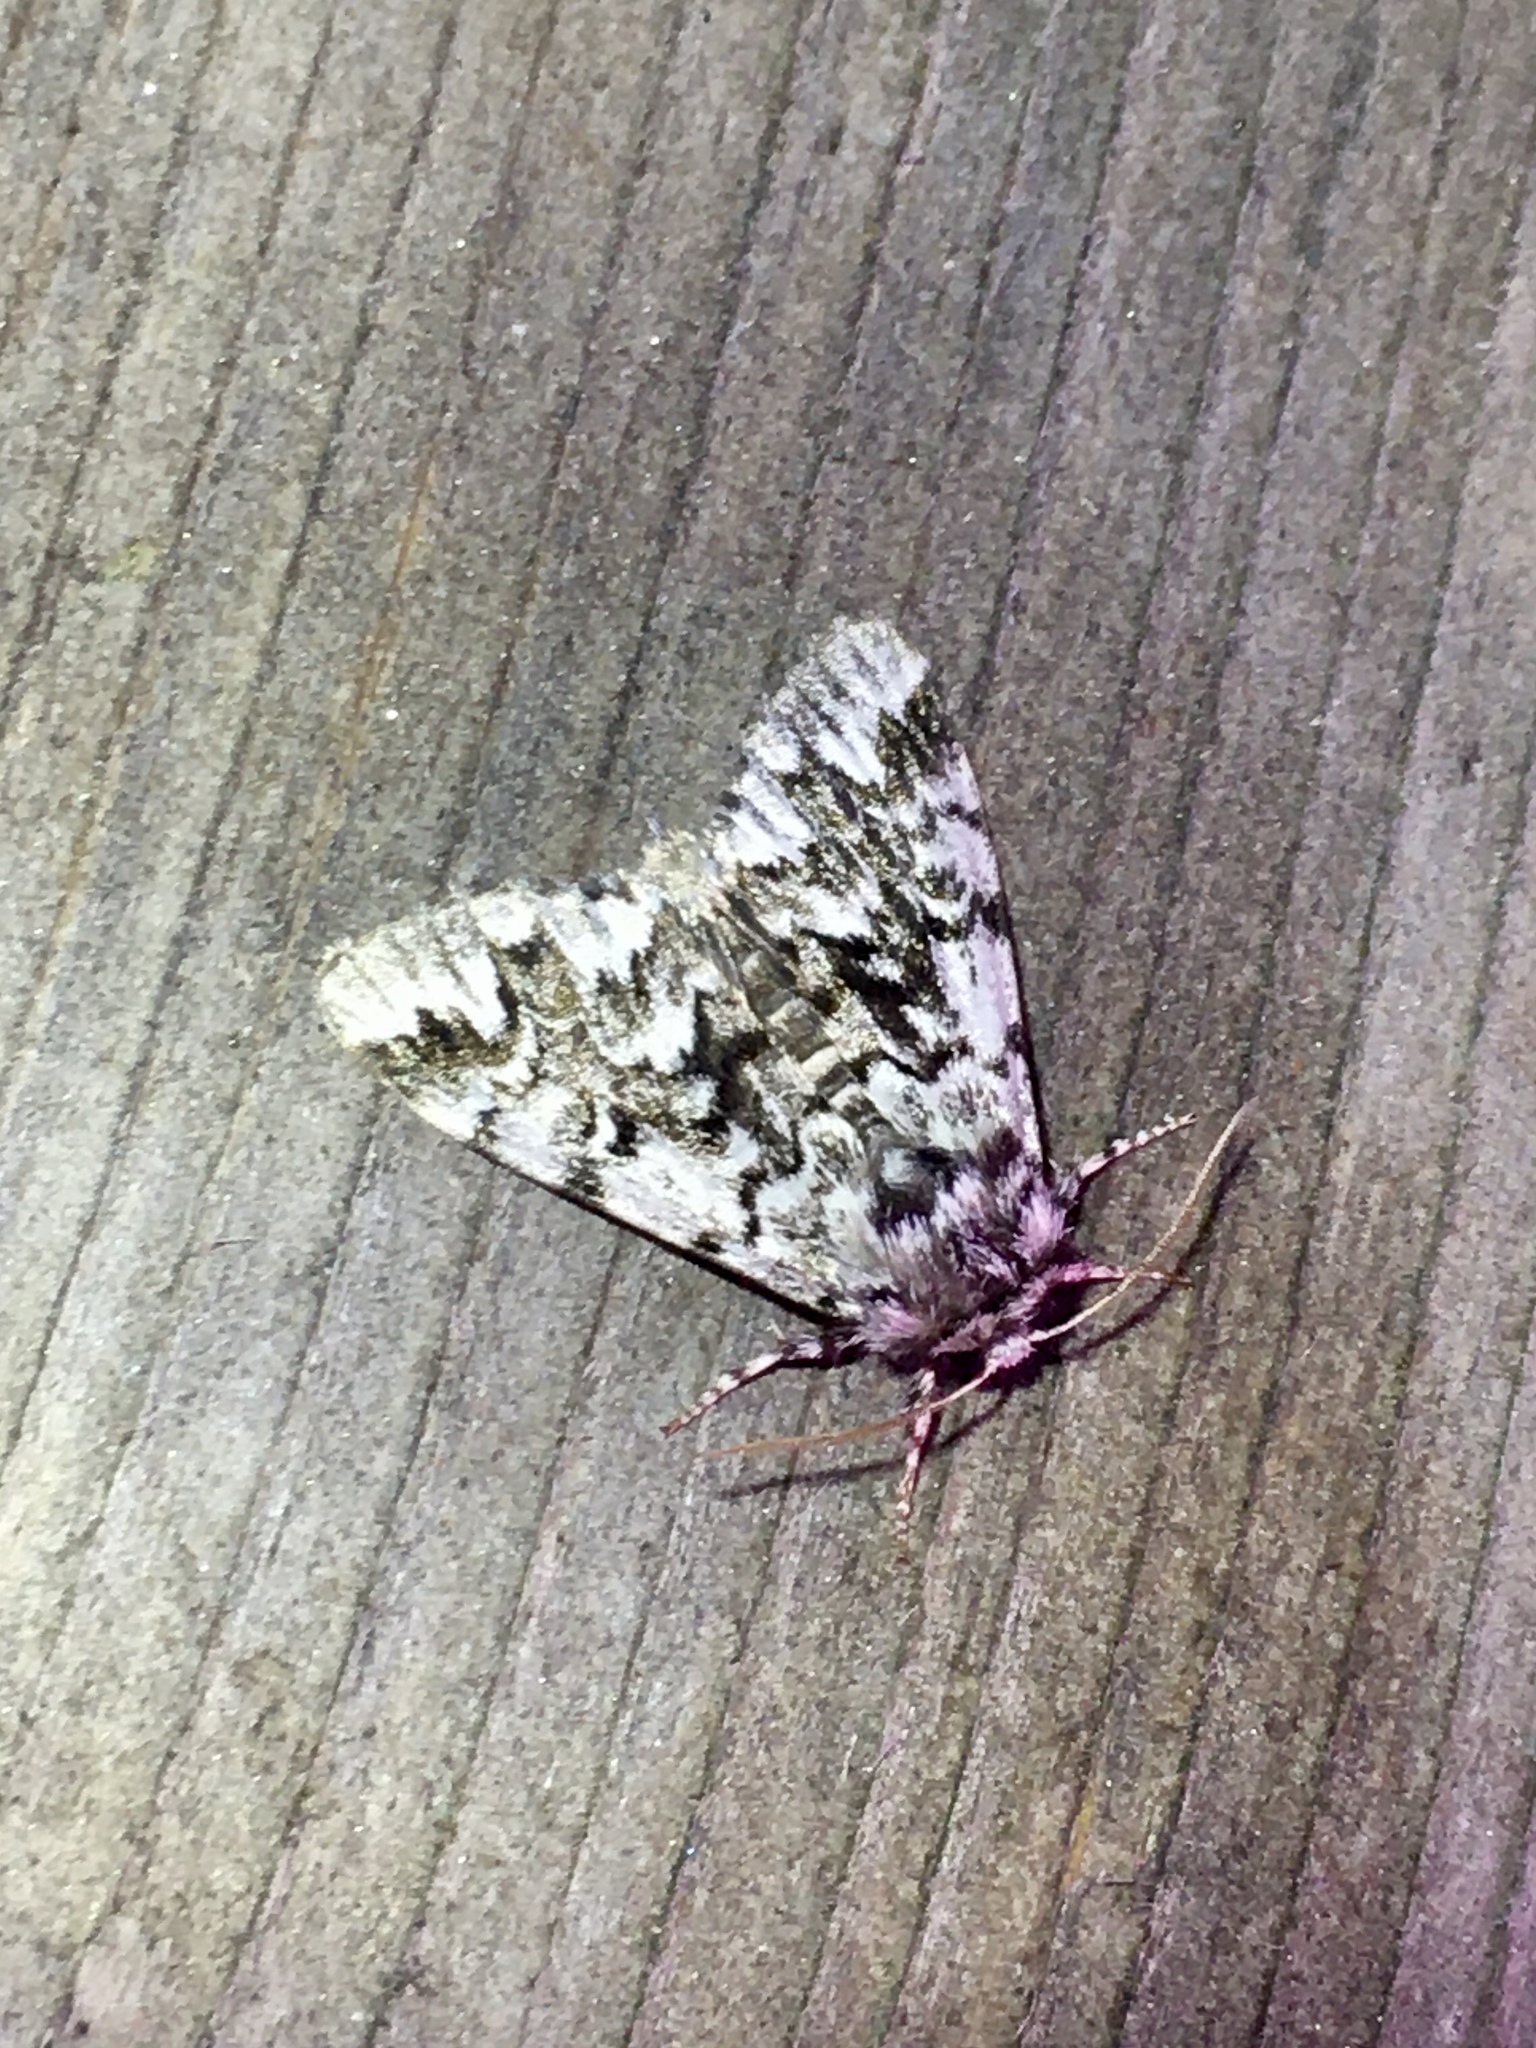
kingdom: Animalia
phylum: Arthropoda
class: Insecta
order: Lepidoptera
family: Noctuidae
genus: Panthea
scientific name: Panthea acronyctoides
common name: Black zigzag moth
